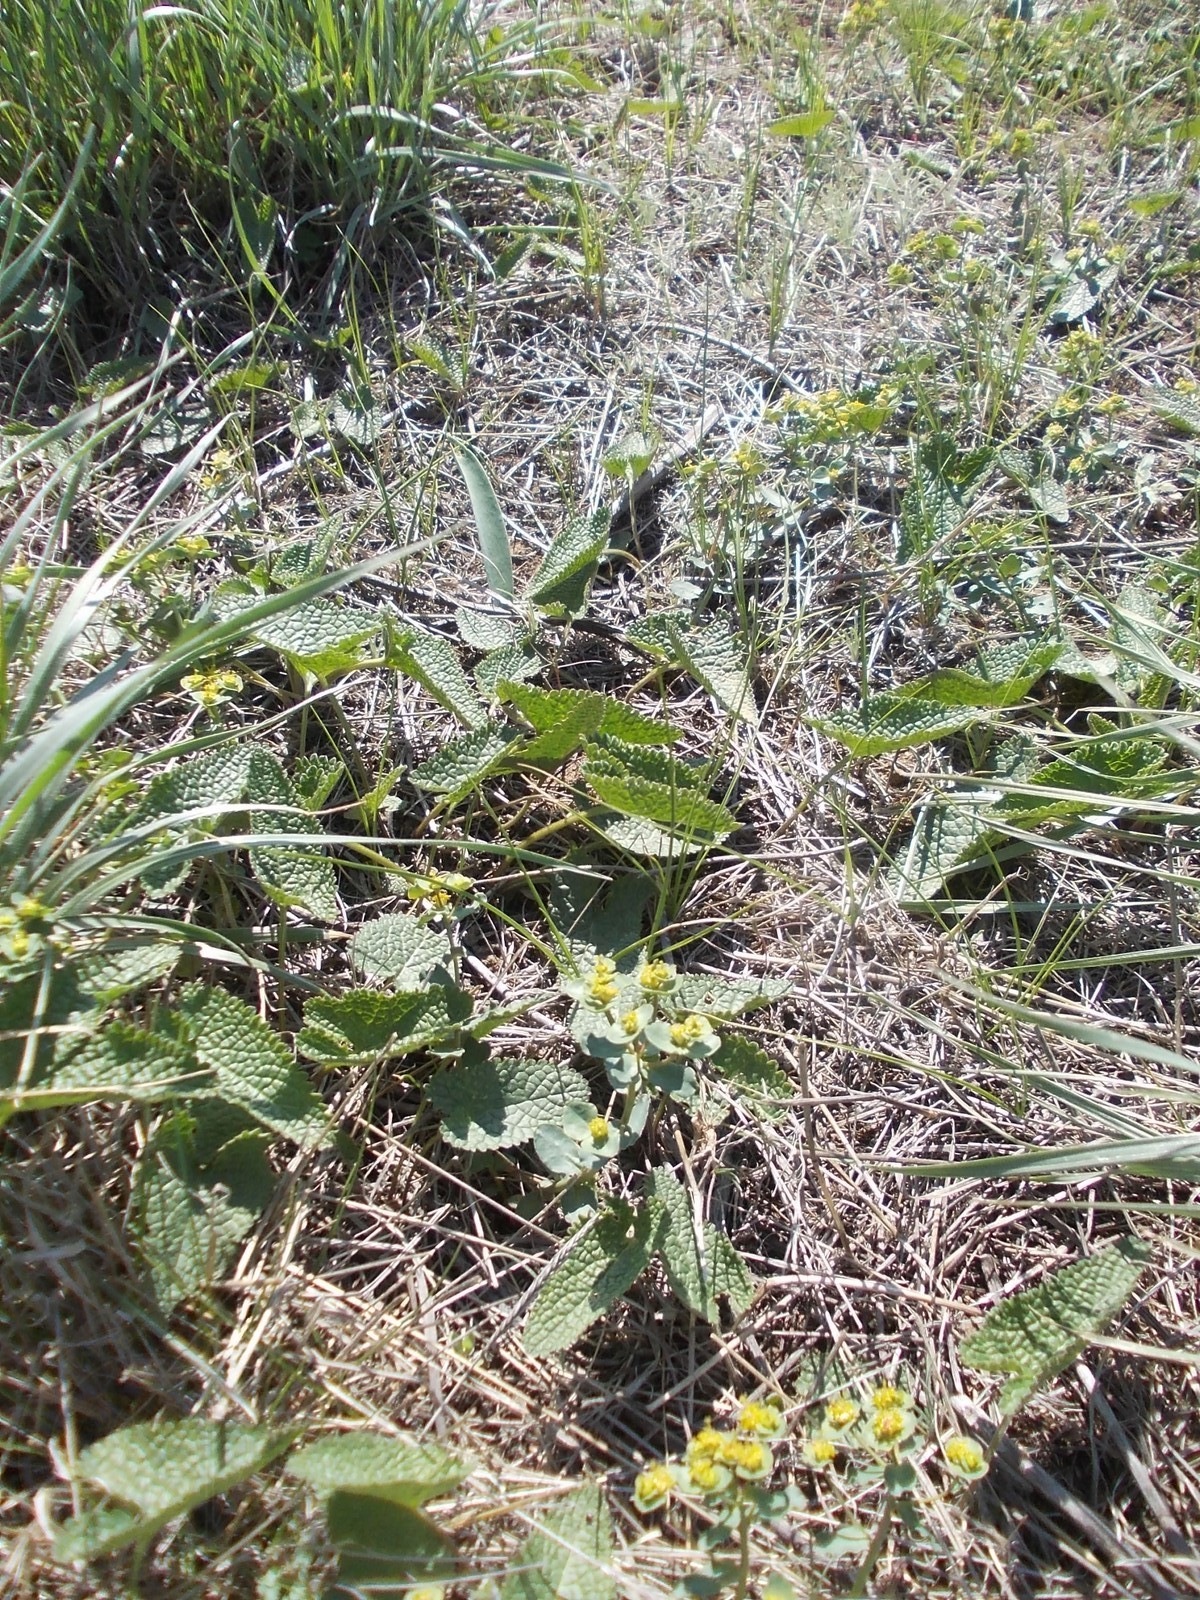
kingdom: Plantae
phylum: Tracheophyta
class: Magnoliopsida
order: Lamiales
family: Lamiaceae
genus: Phlomoides
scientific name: Phlomoides tuberosa
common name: Tuberous jerusalem sage
